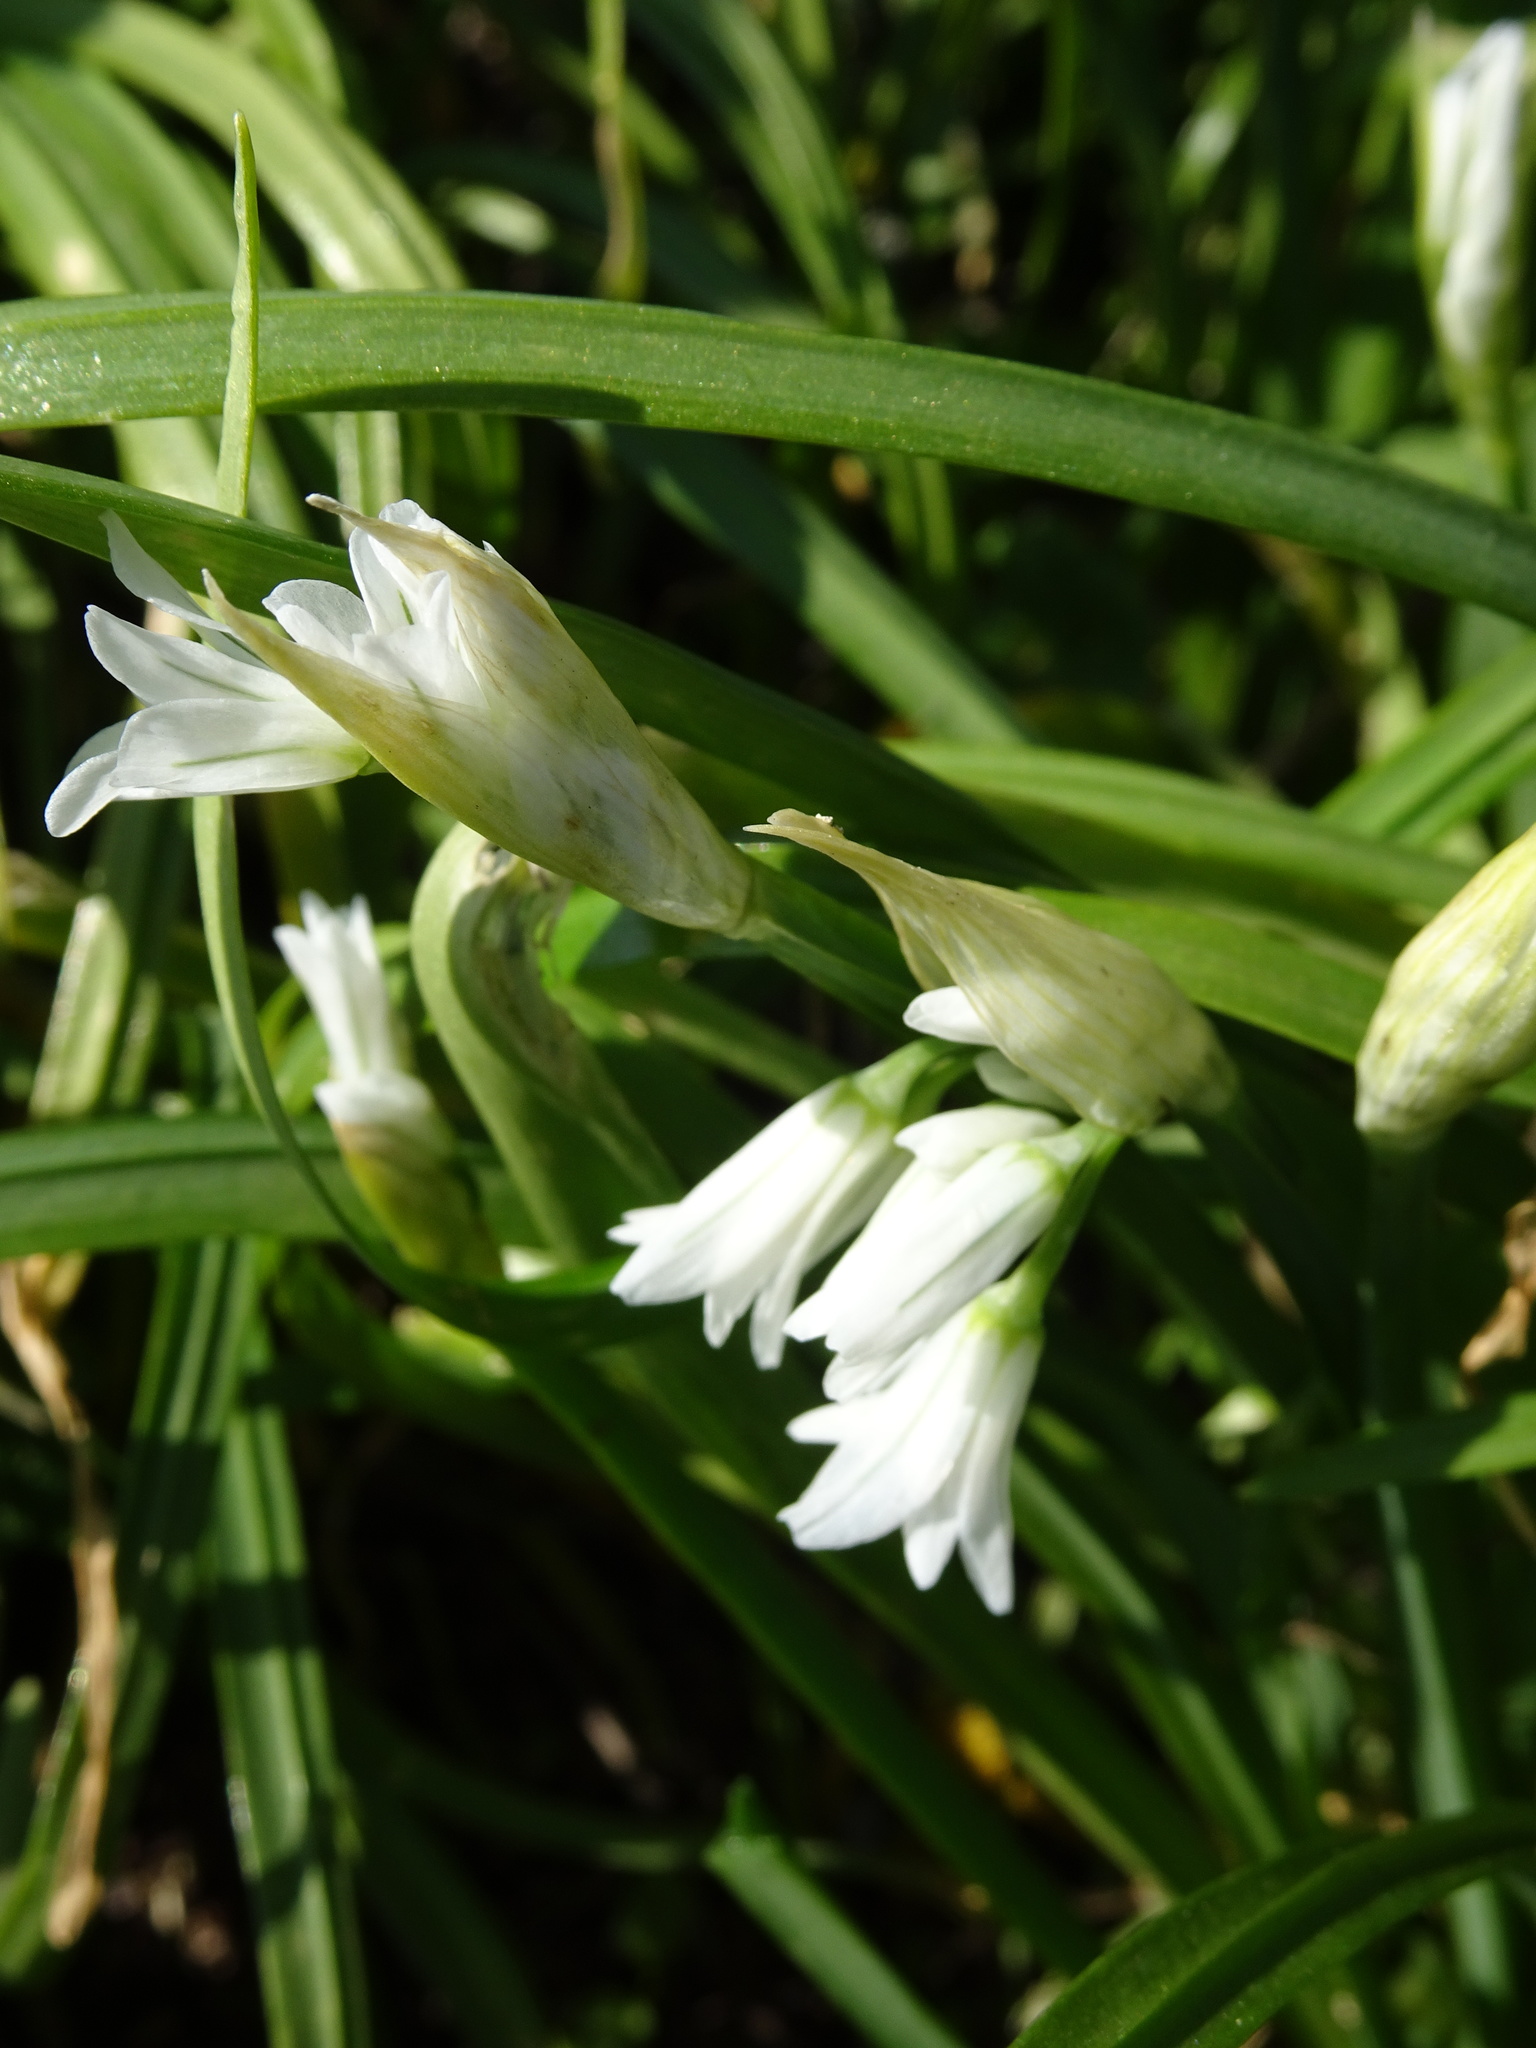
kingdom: Plantae
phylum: Tracheophyta
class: Liliopsida
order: Asparagales
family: Amaryllidaceae
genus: Allium
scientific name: Allium triquetrum
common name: Three-cornered garlic
